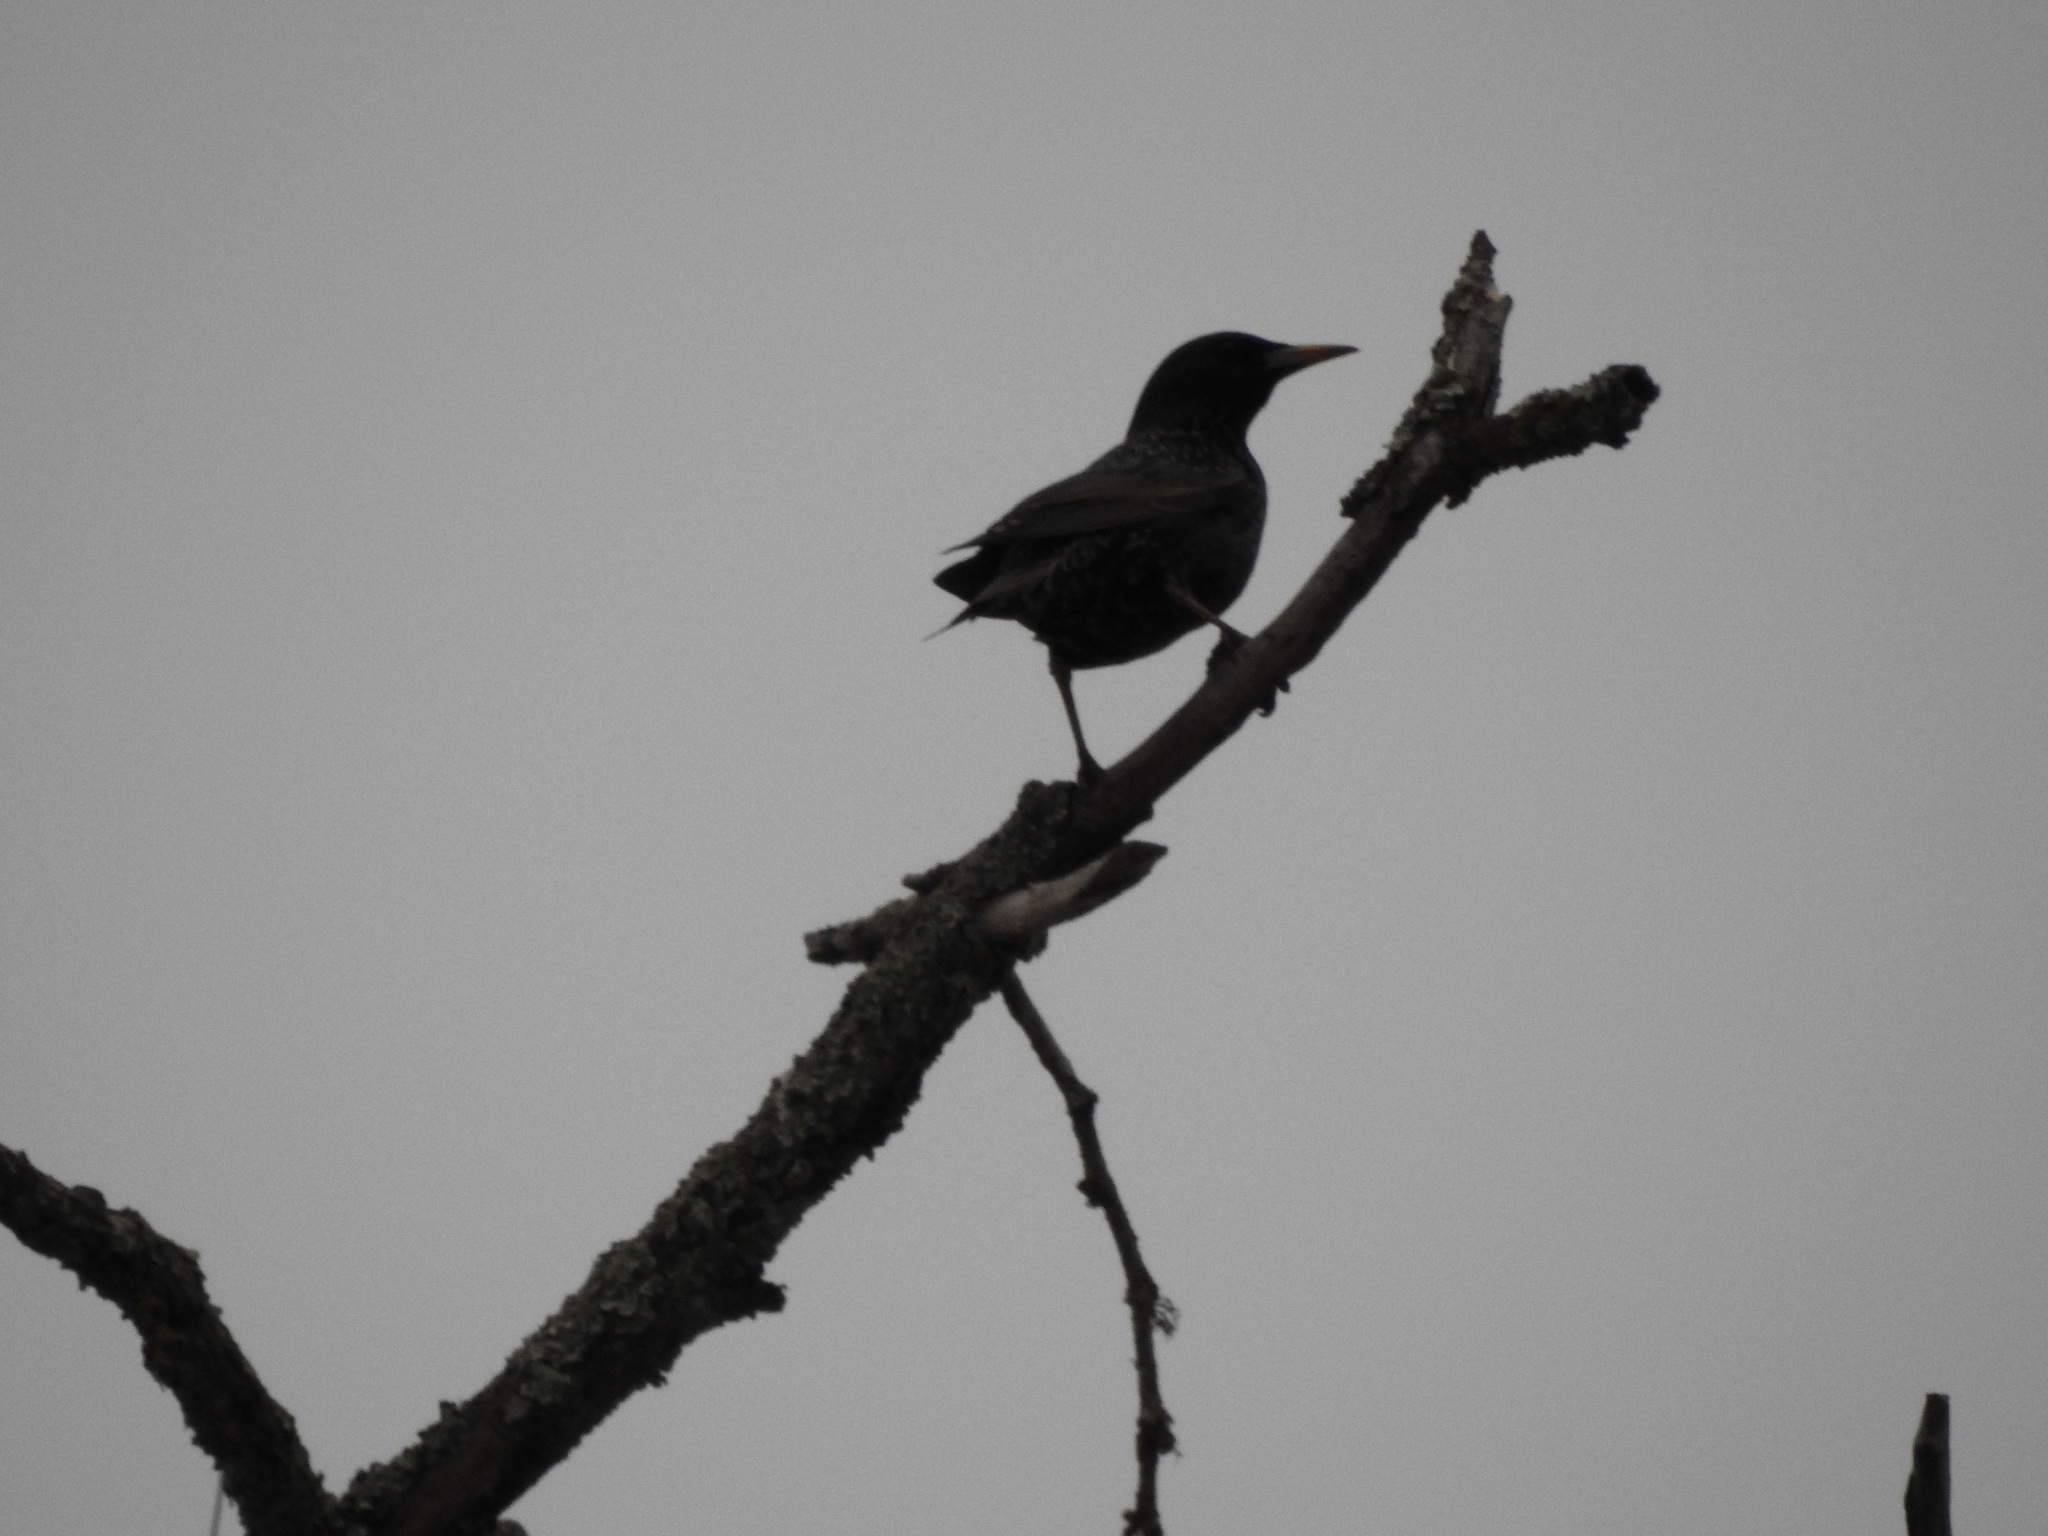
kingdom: Animalia
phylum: Chordata
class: Aves
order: Passeriformes
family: Sturnidae
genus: Sturnus
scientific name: Sturnus vulgaris
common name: Common starling
